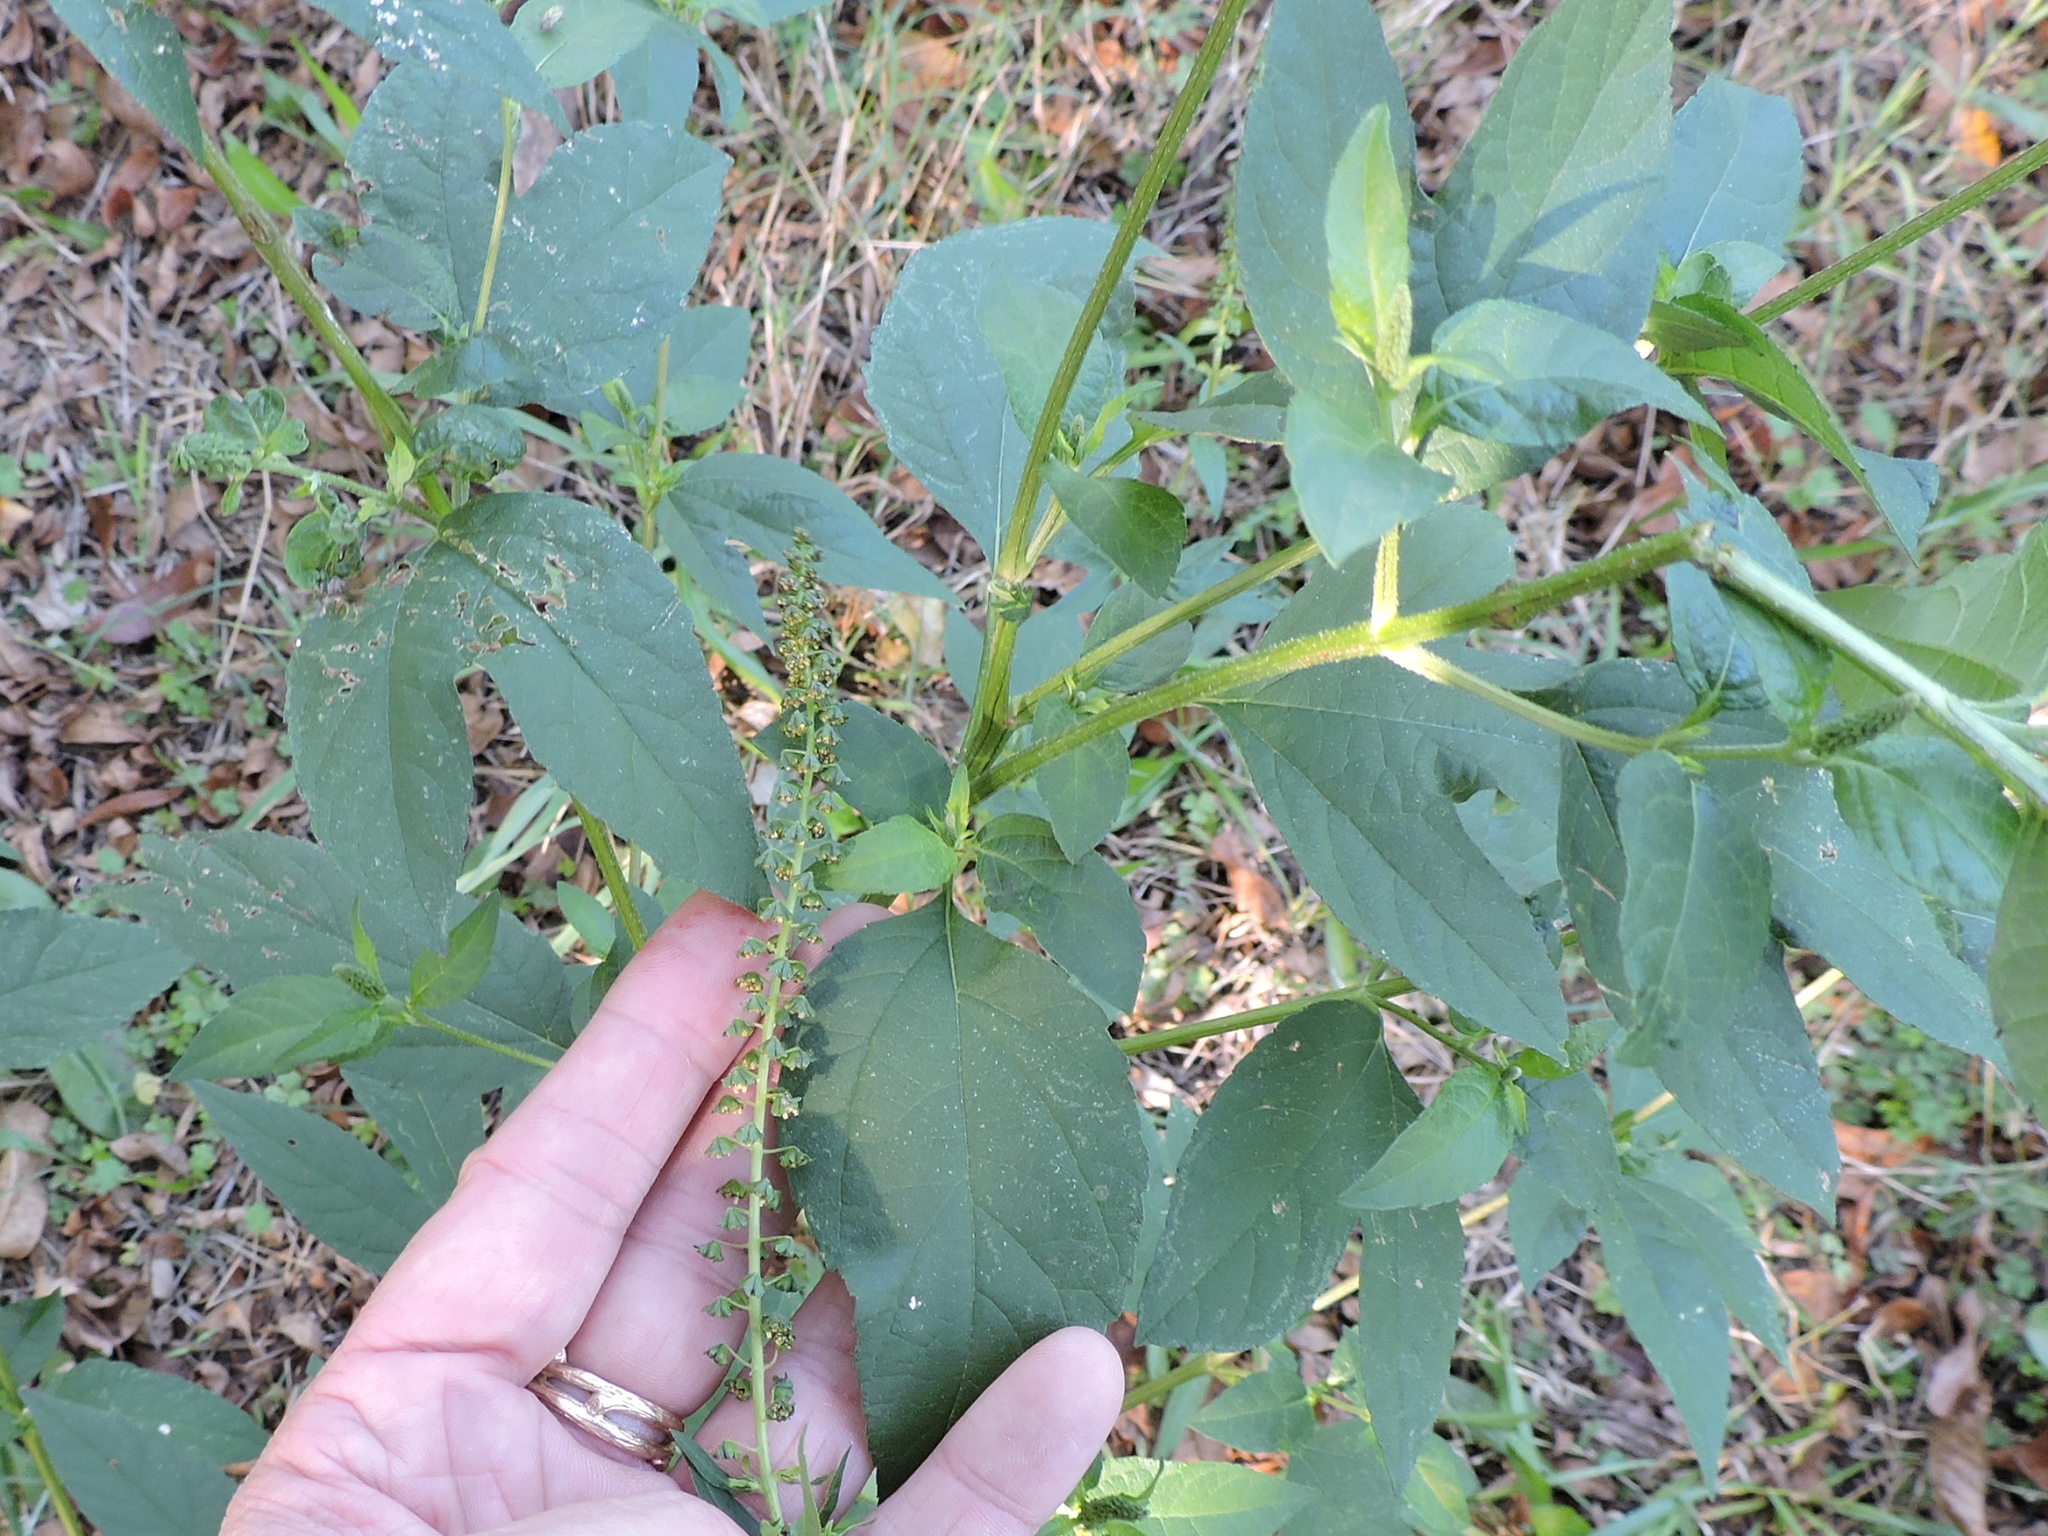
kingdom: Plantae
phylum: Tracheophyta
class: Magnoliopsida
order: Asterales
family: Asteraceae
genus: Ambrosia
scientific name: Ambrosia trifida
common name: Giant ragweed
